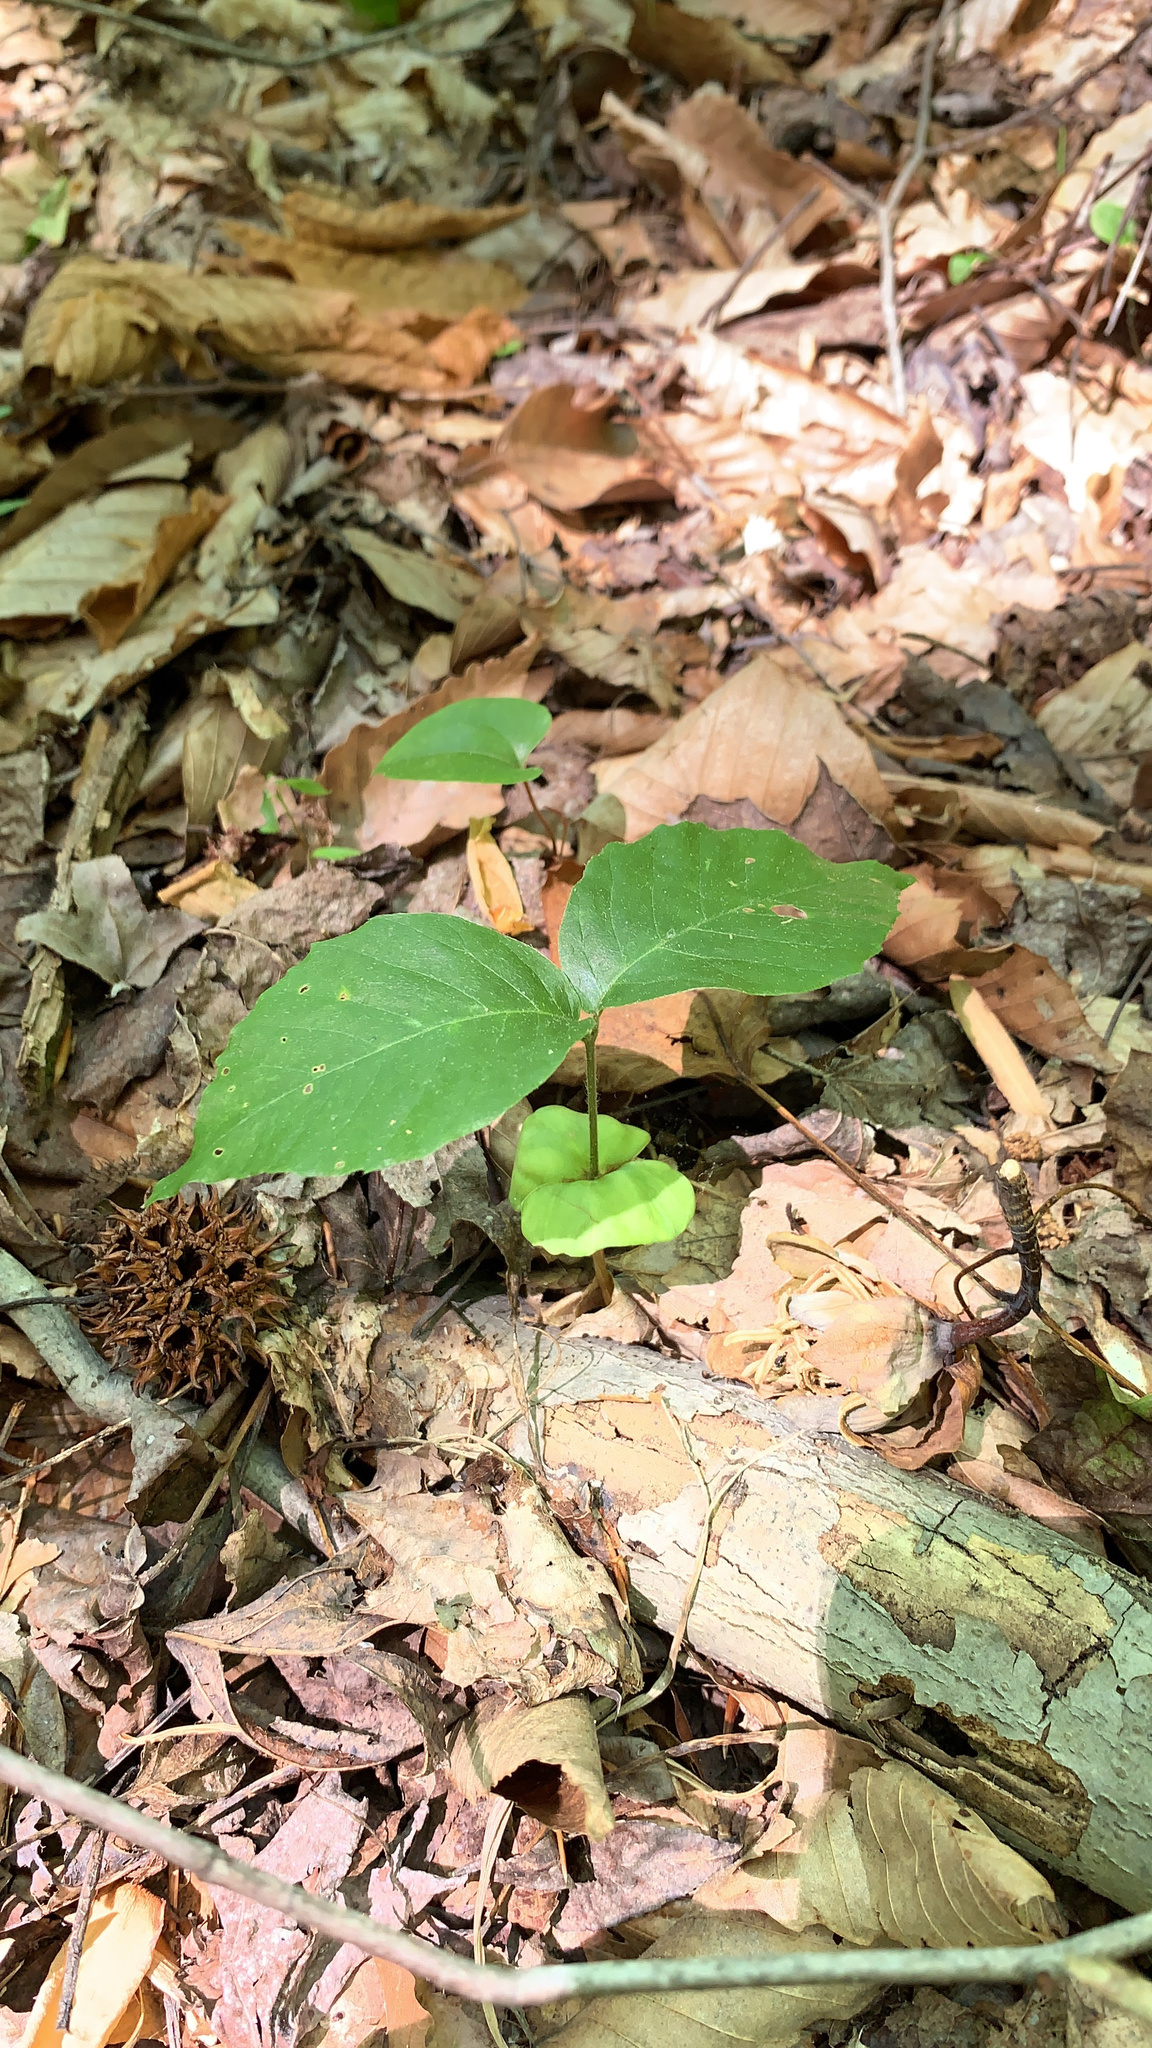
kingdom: Plantae
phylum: Tracheophyta
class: Magnoliopsida
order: Fagales
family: Fagaceae
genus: Fagus
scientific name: Fagus grandifolia
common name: American beech
